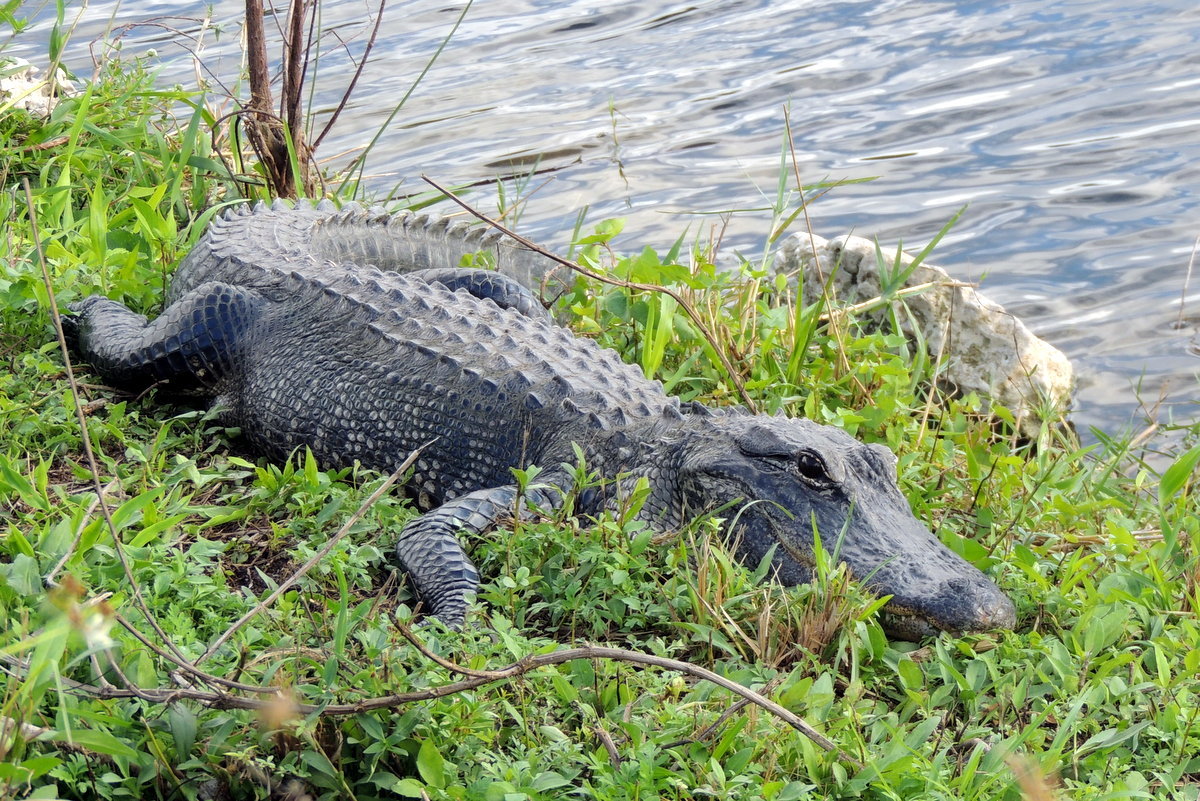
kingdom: Animalia
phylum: Chordata
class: Crocodylia
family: Alligatoridae
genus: Alligator
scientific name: Alligator mississippiensis
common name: American alligator
